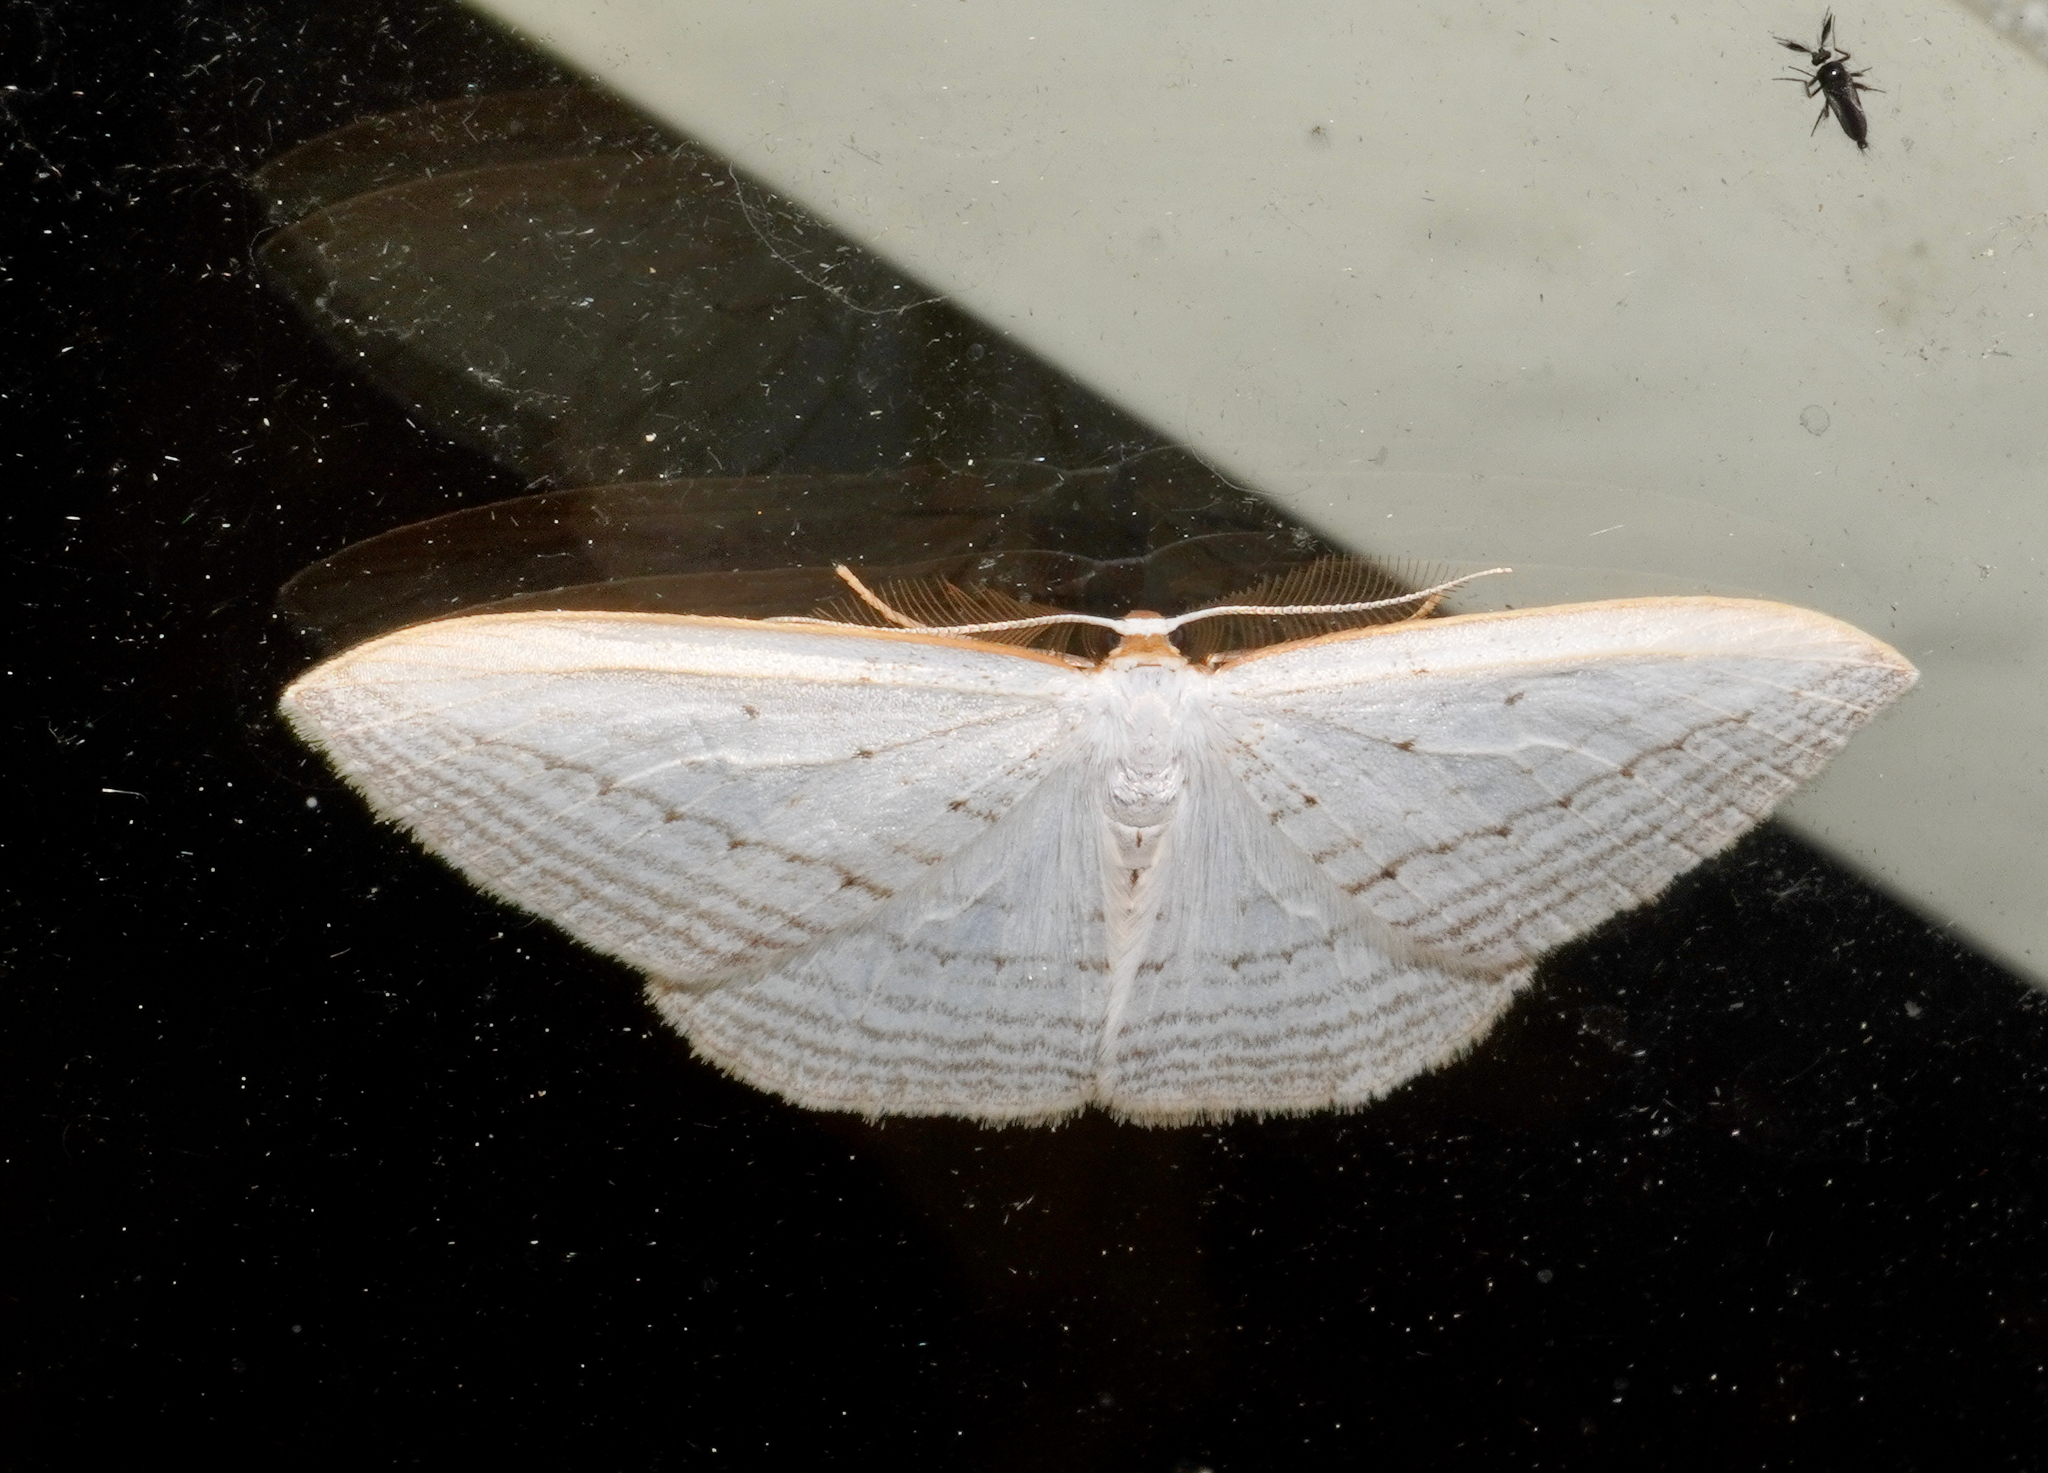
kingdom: Animalia
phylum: Arthropoda
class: Insecta
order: Lepidoptera
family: Geometridae
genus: Orthoclydon
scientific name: Orthoclydon praefectata
